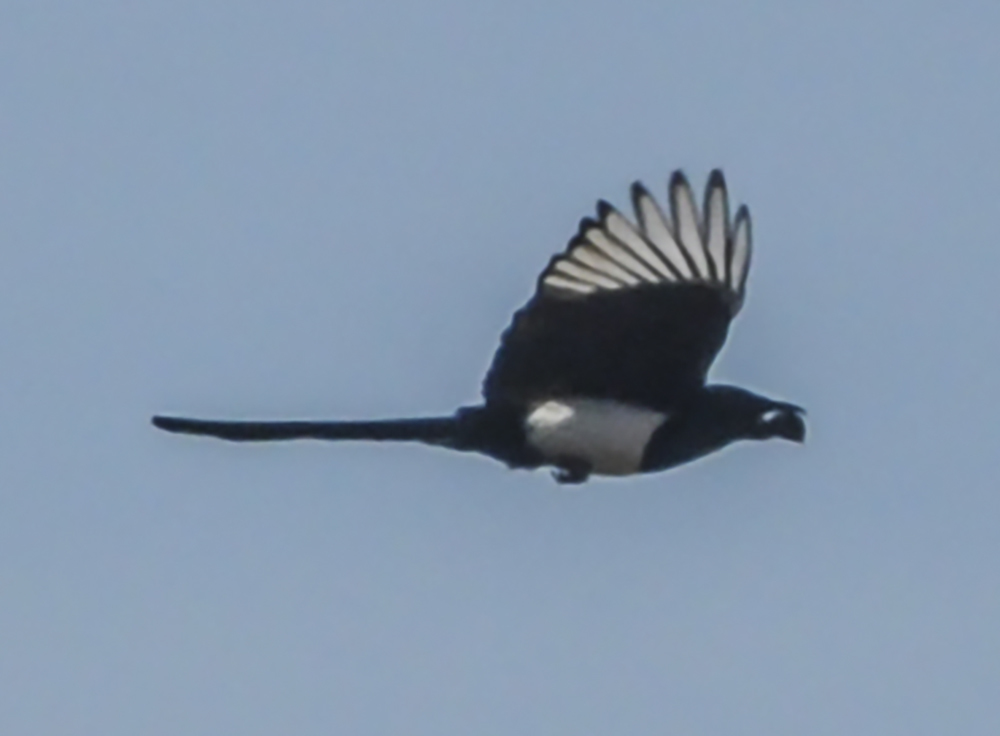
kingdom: Animalia
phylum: Chordata
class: Aves
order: Passeriformes
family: Corvidae
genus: Pica
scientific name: Pica pica
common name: Eurasian magpie
